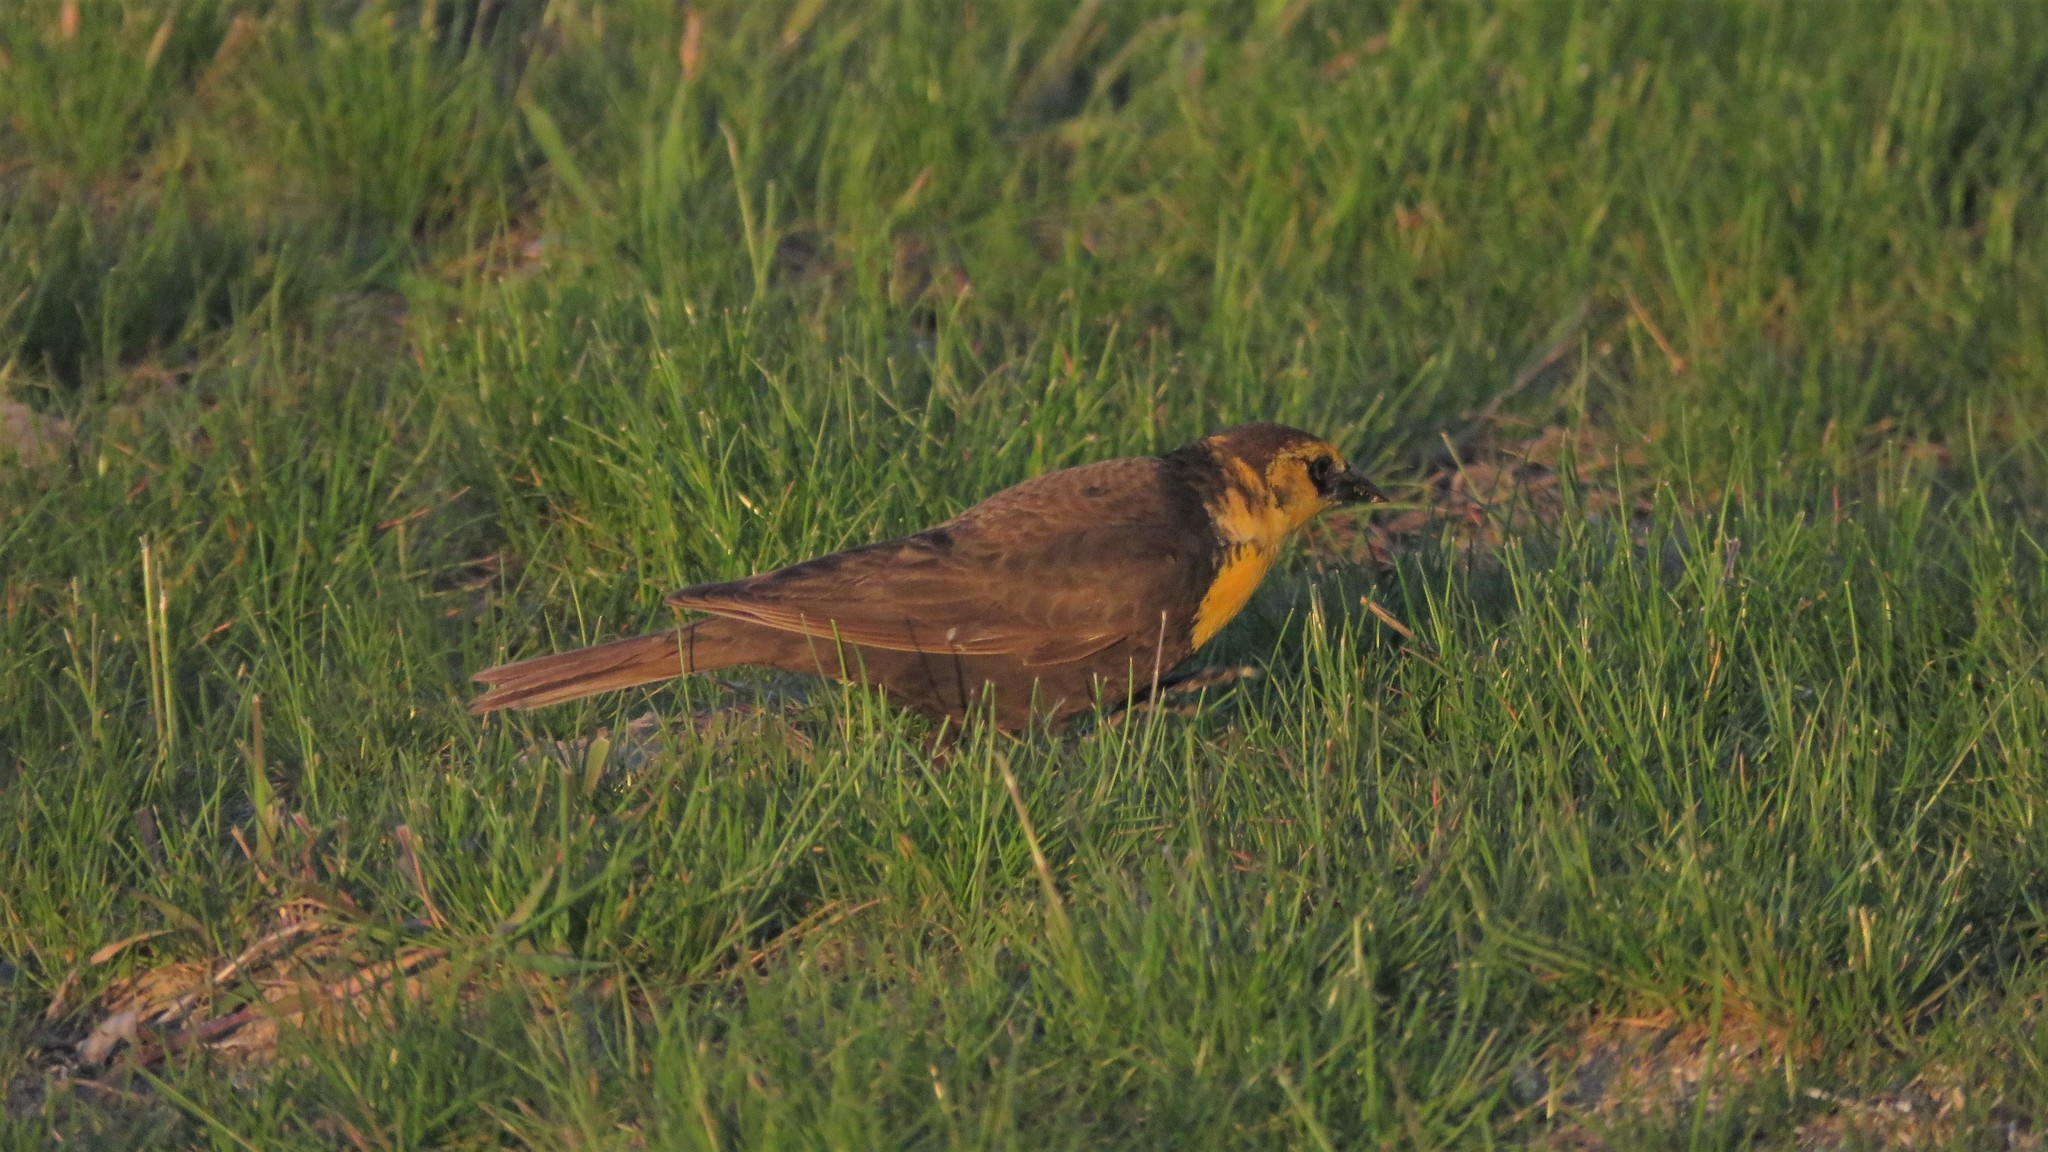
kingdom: Animalia
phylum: Chordata
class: Aves
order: Passeriformes
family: Icteridae
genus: Xanthocephalus
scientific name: Xanthocephalus xanthocephalus
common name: Yellow-headed blackbird
